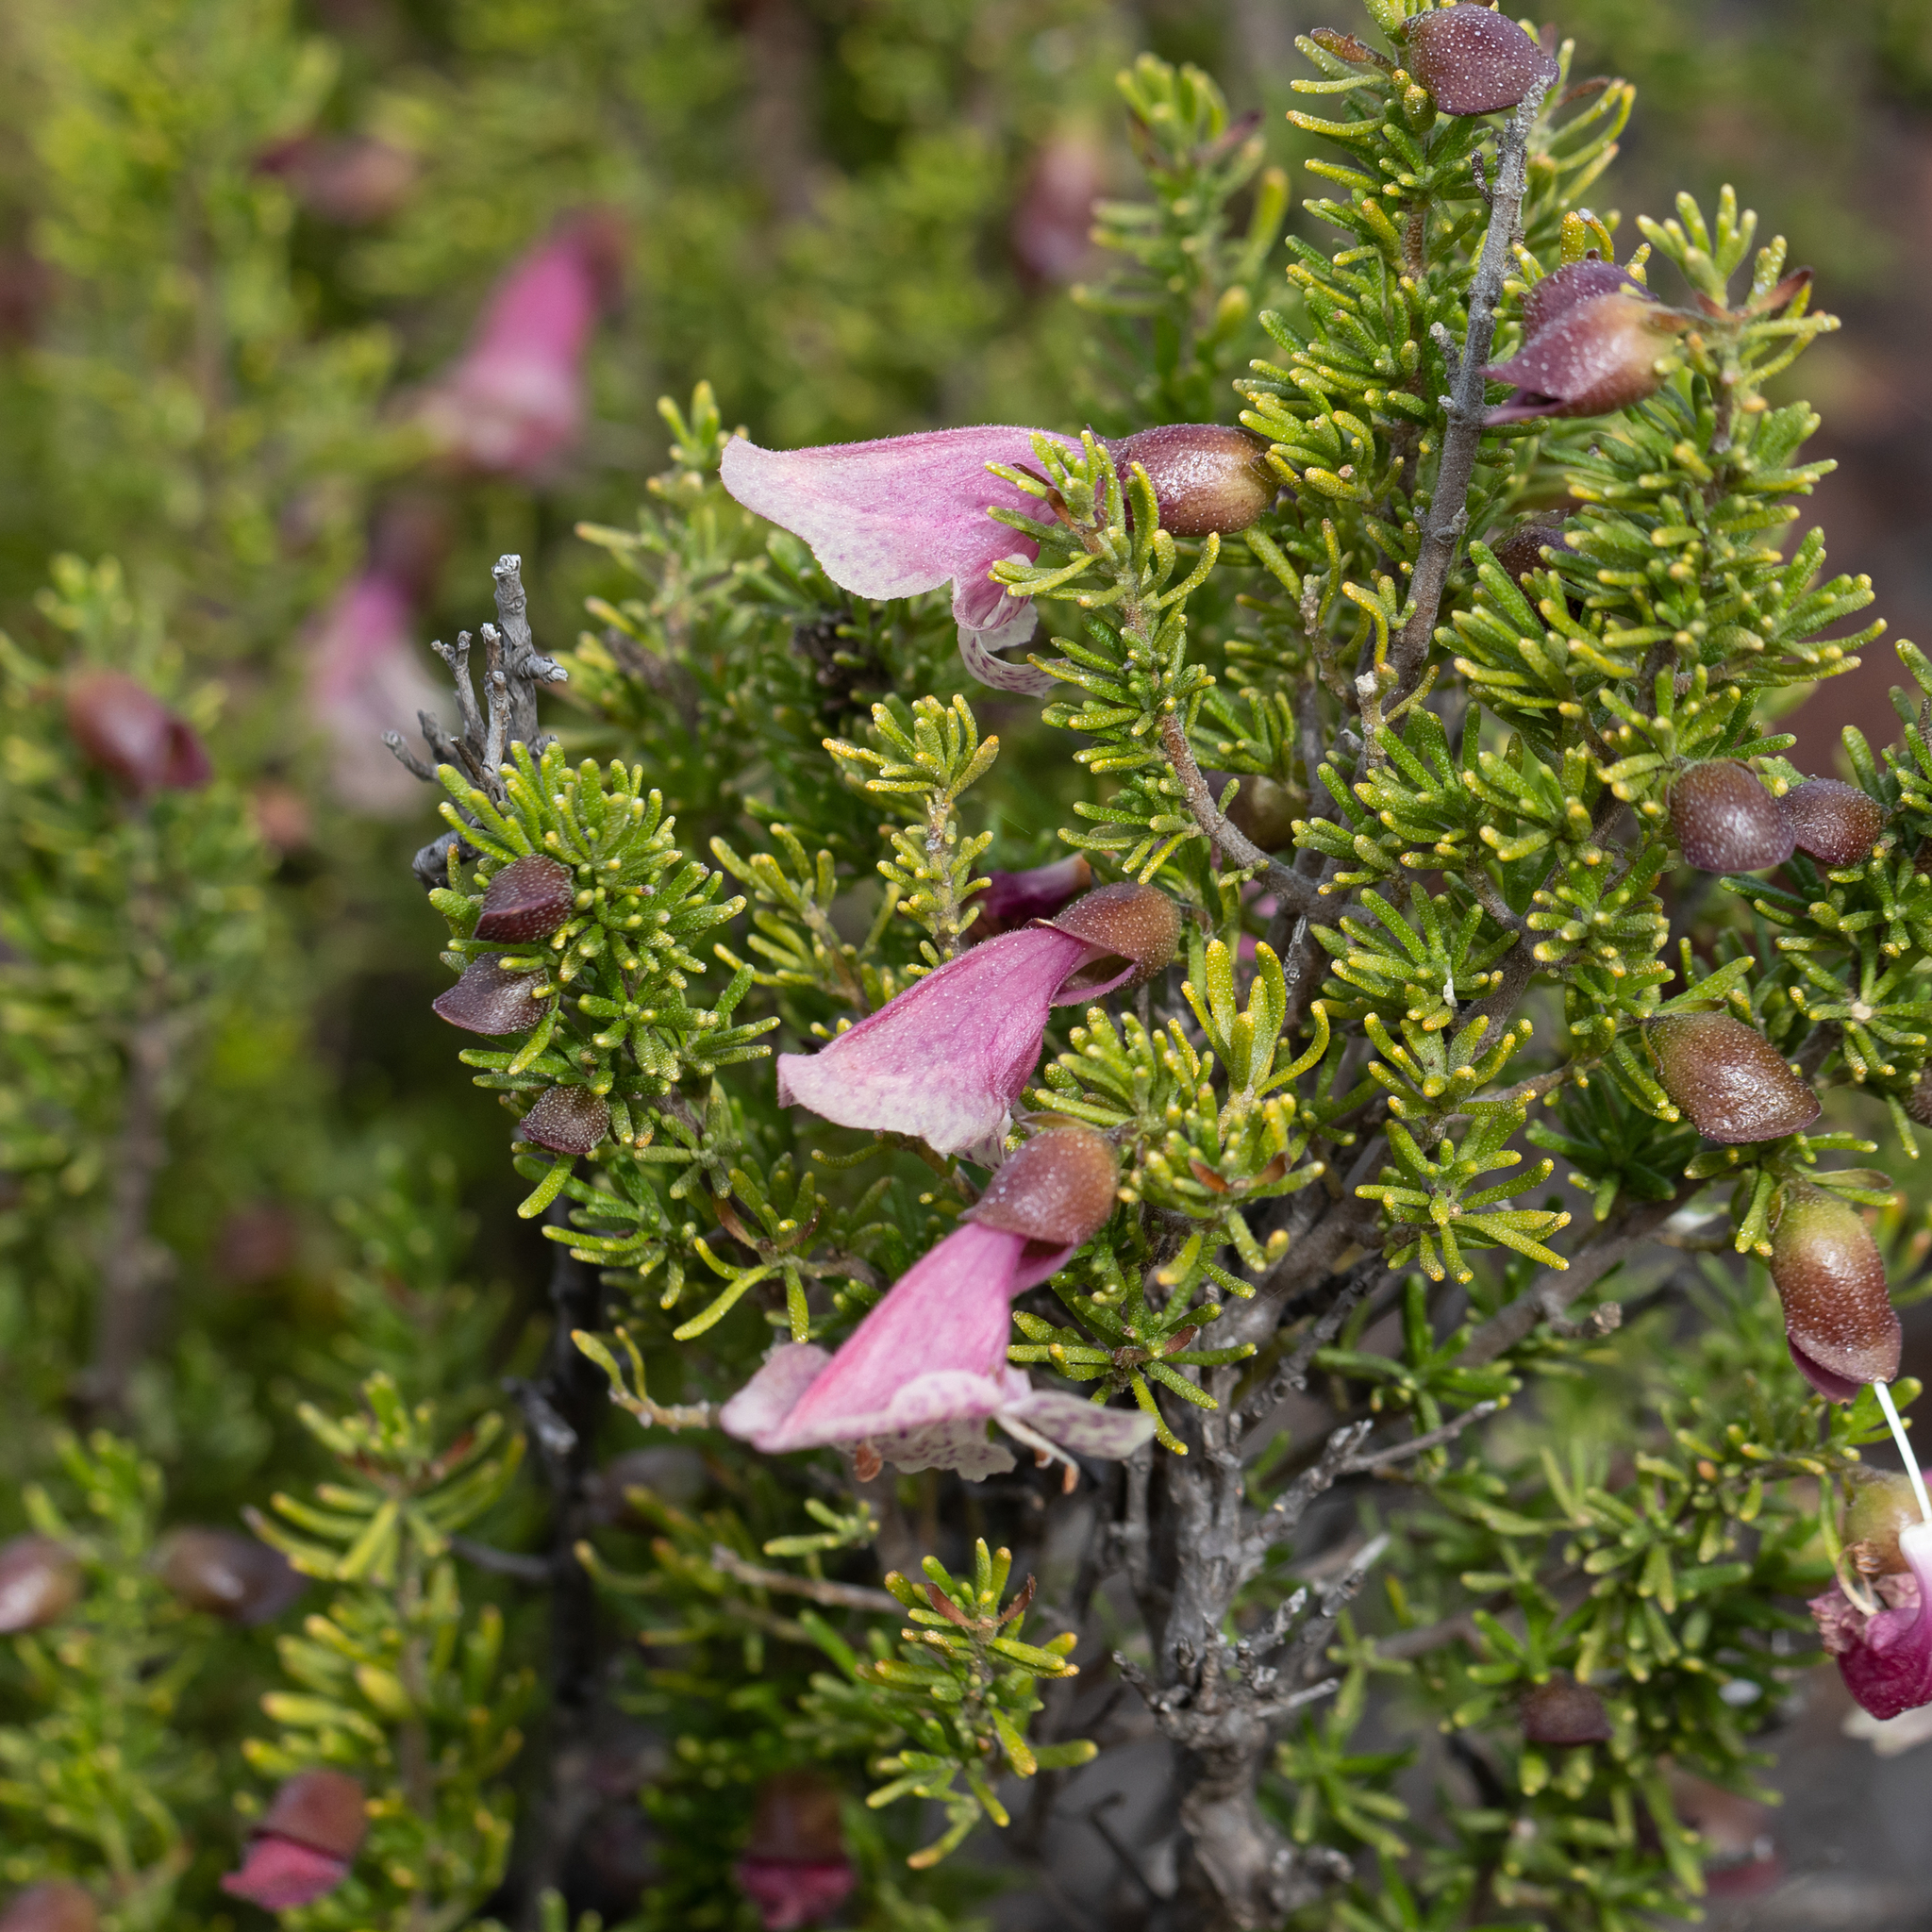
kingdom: Plantae
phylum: Tracheophyta
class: Magnoliopsida
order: Lamiales
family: Lamiaceae
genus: Prostanthera
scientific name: Prostanthera florifera
